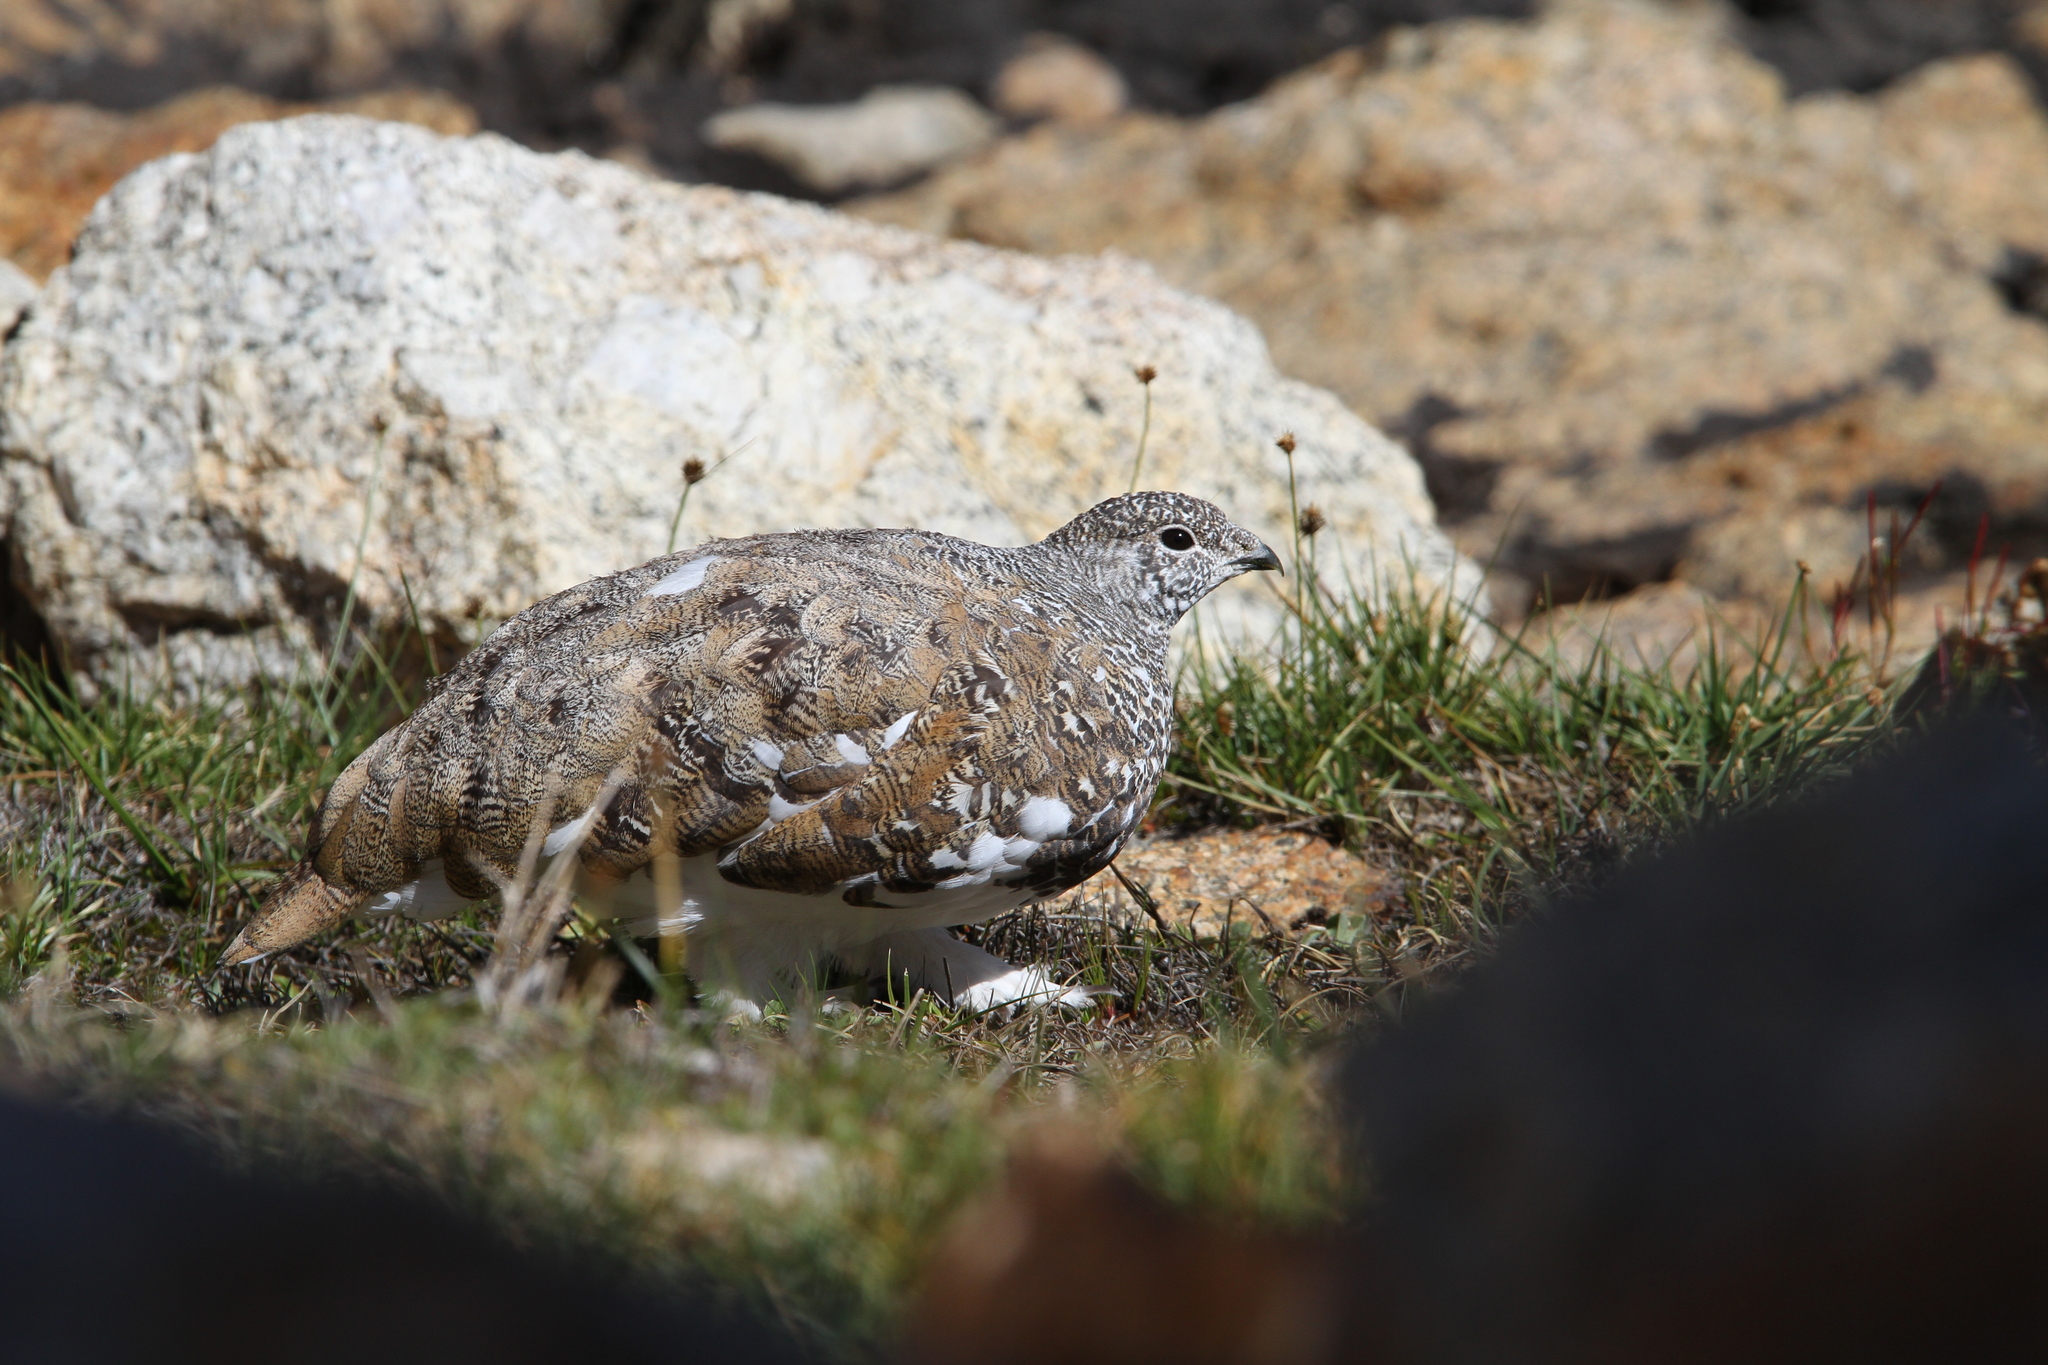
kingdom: Animalia
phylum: Chordata
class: Aves
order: Galliformes
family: Phasianidae
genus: Lagopus
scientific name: Lagopus leucura
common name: White-tailed ptarmigan
